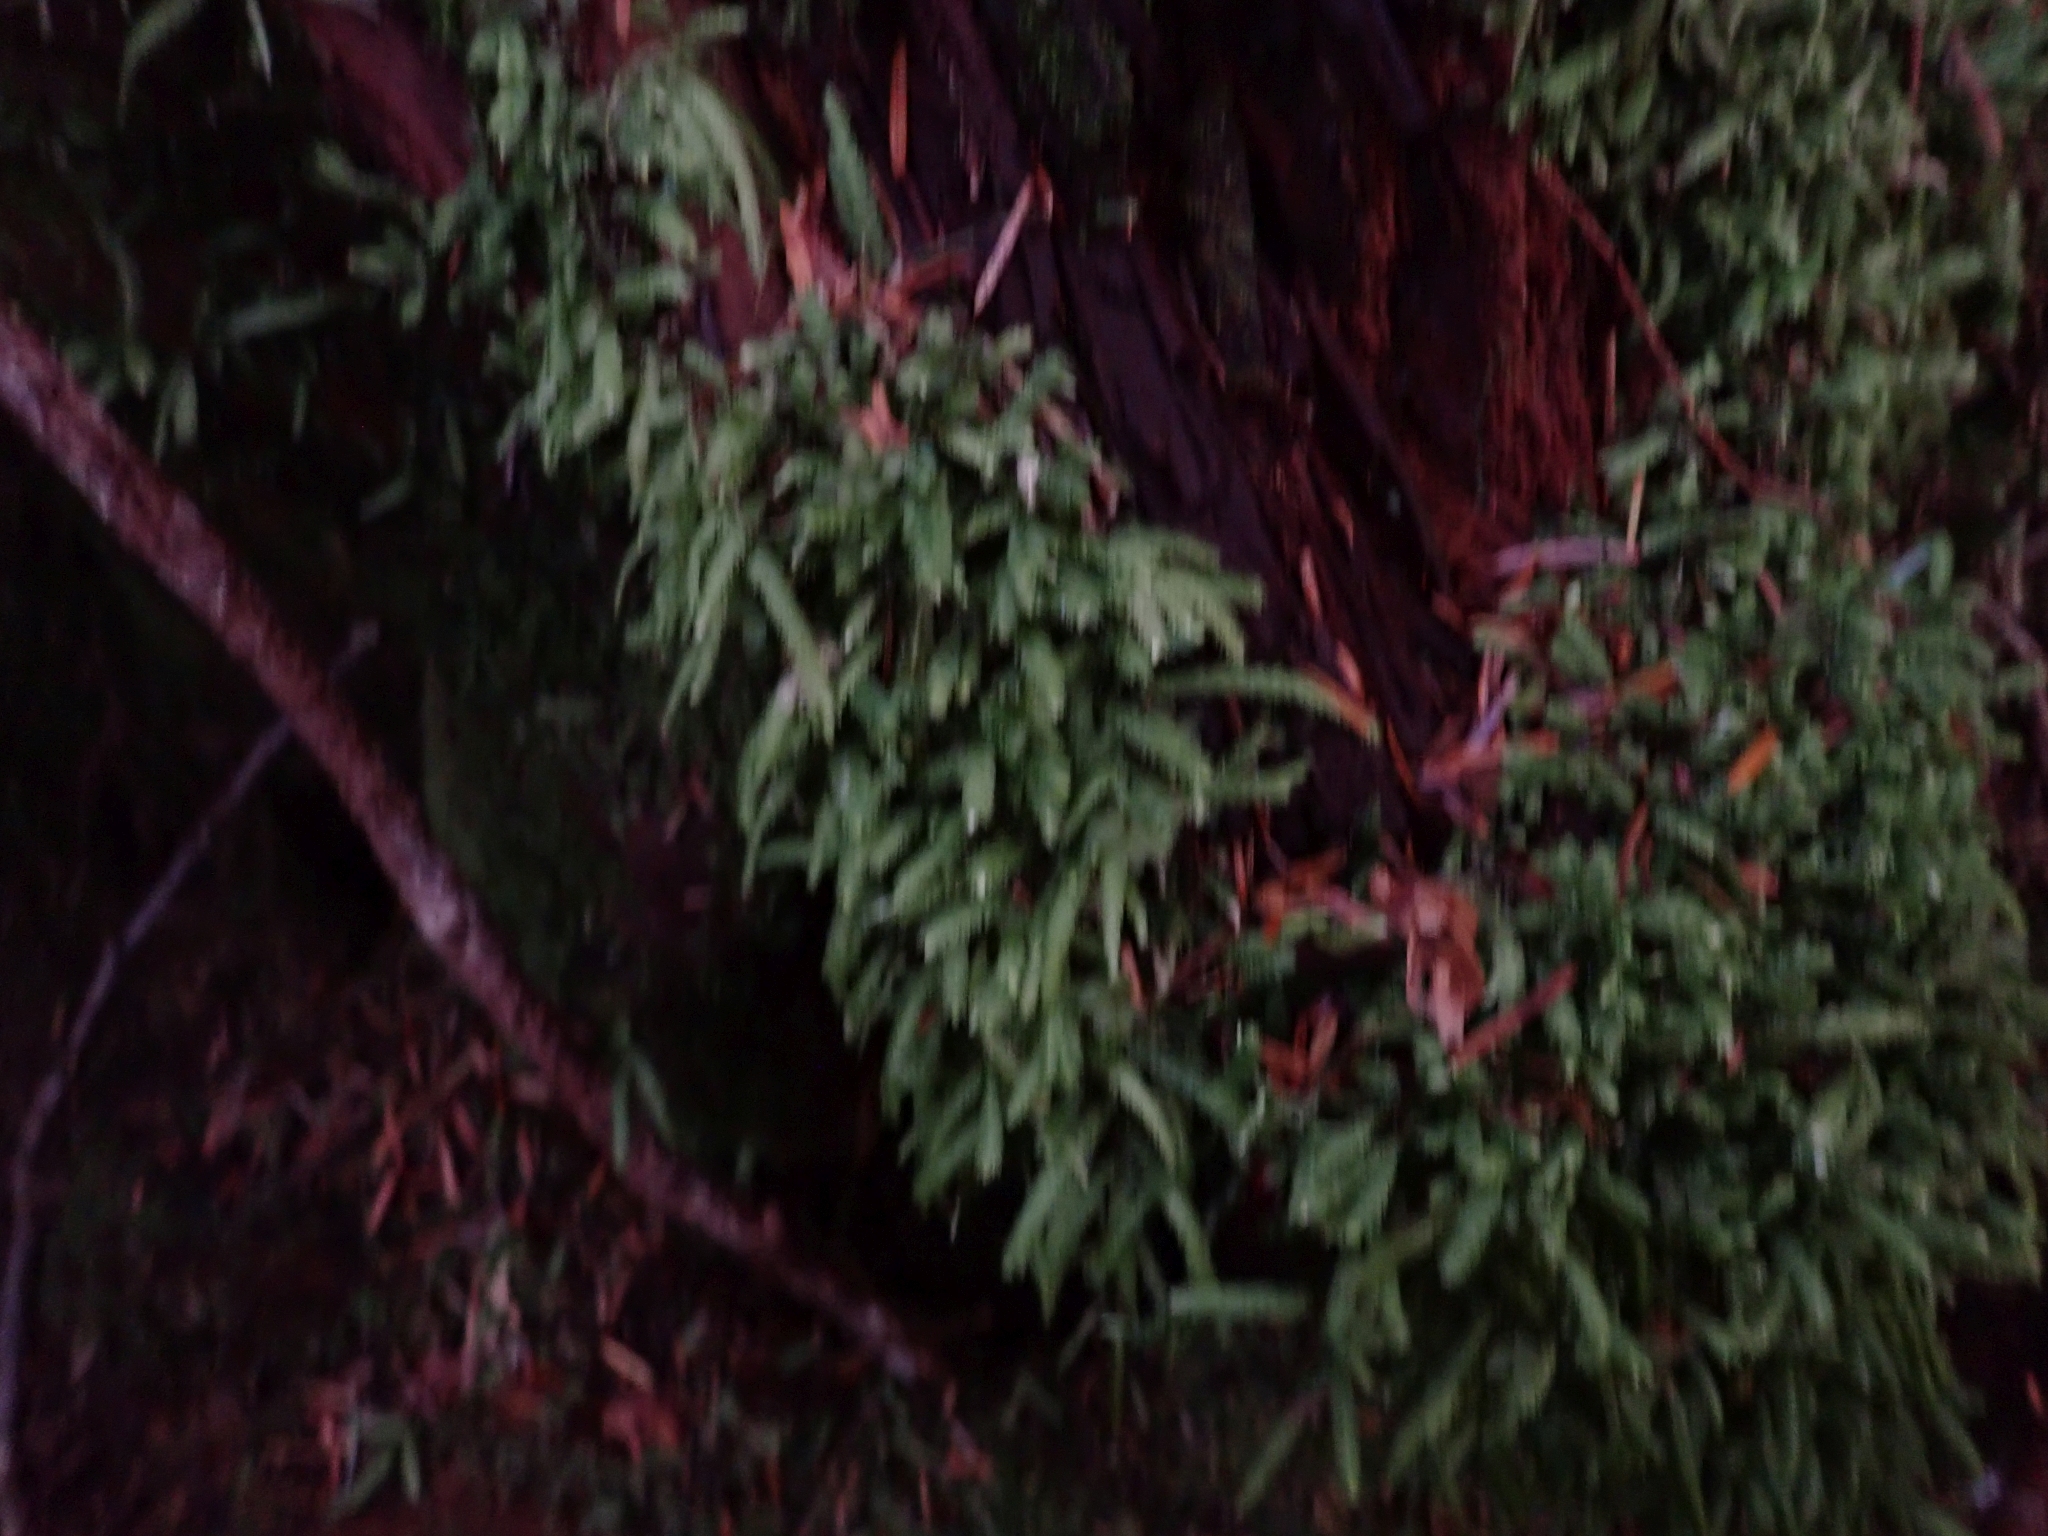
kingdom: Plantae
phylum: Bryophyta
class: Bryopsida
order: Hypnales
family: Plagiotheciaceae
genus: Plagiothecium
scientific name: Plagiothecium undulatum
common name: Waved silk-moss
